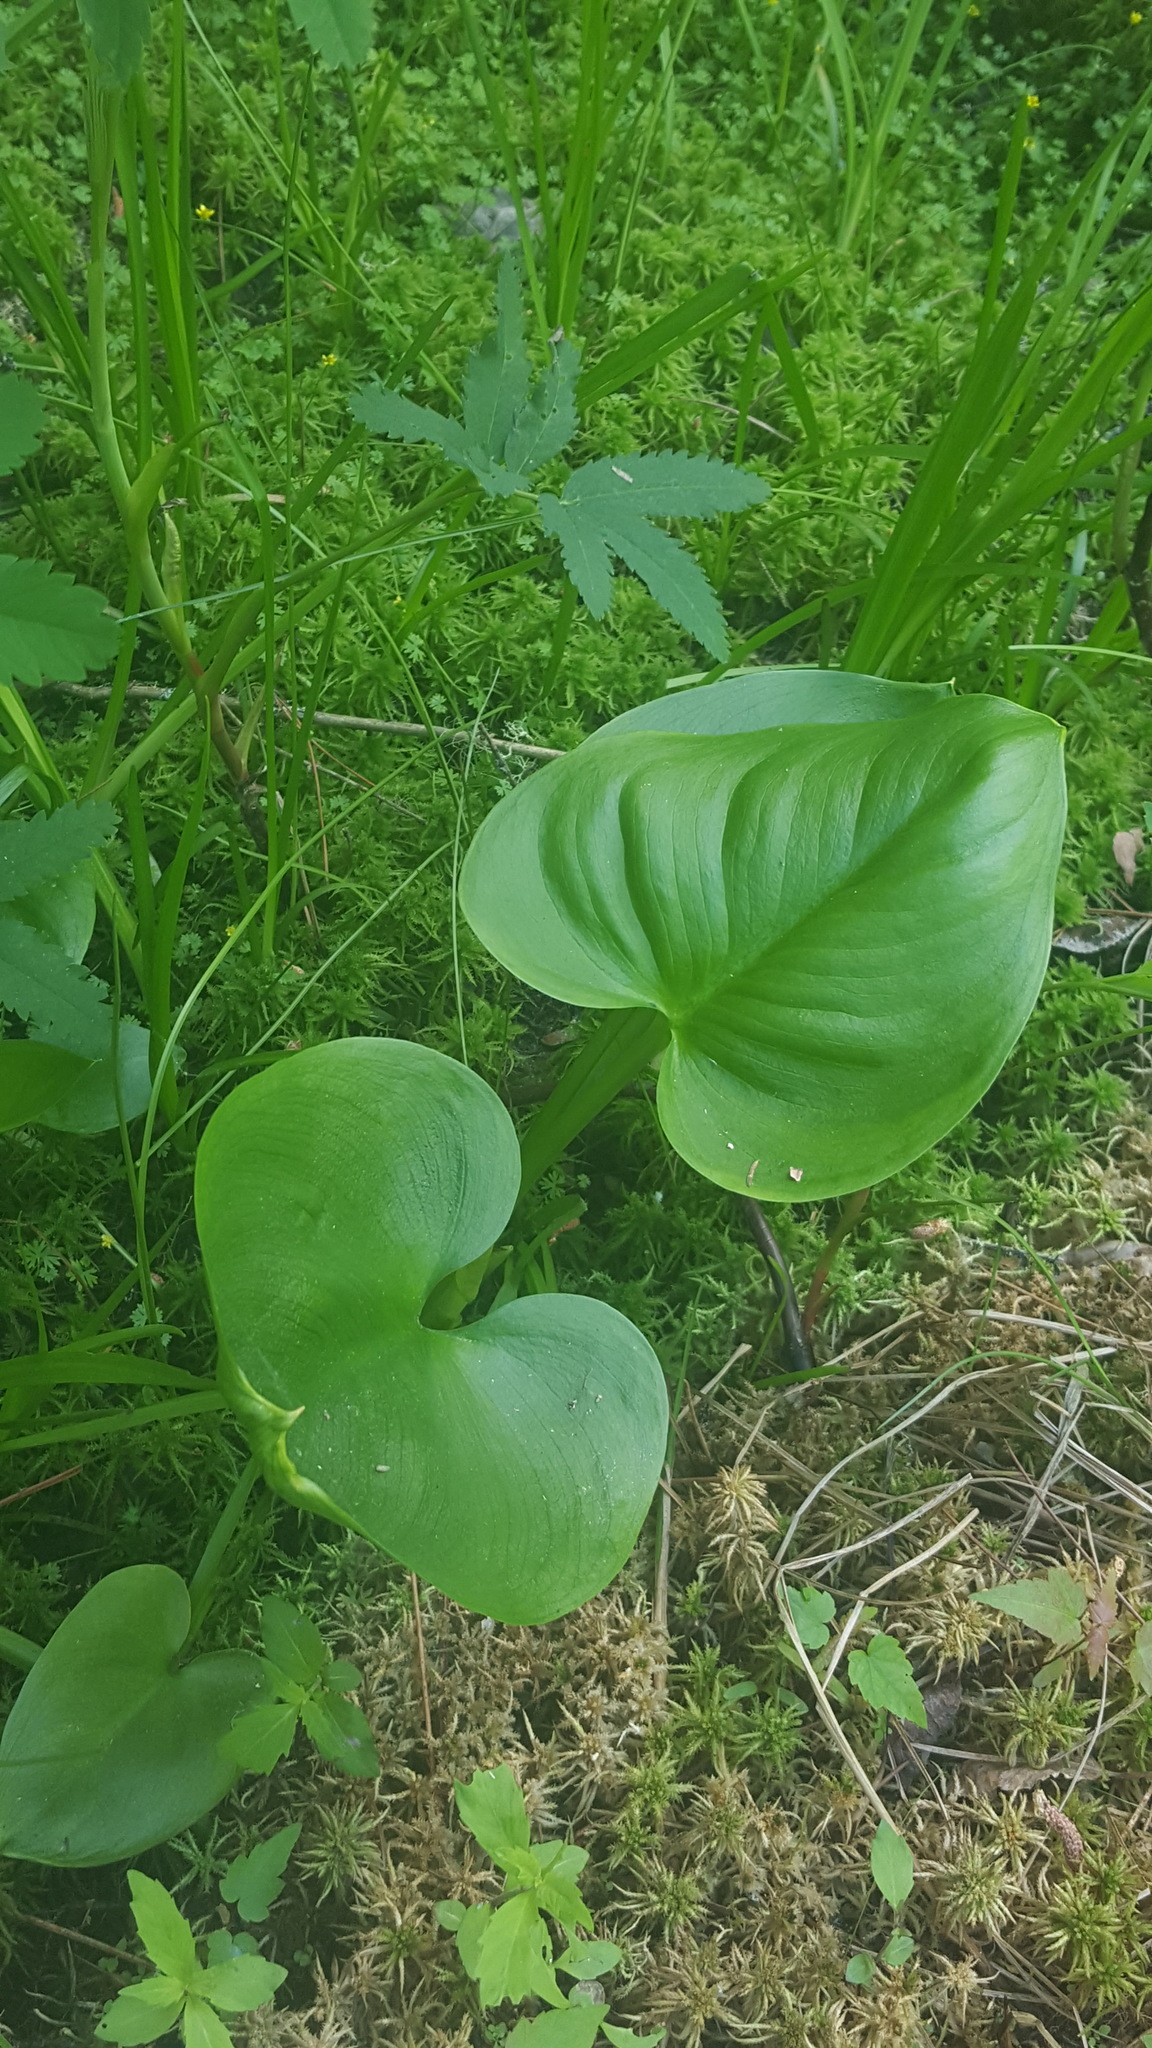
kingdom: Plantae
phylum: Tracheophyta
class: Liliopsida
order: Alismatales
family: Araceae
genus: Calla
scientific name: Calla palustris
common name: Bog arum
